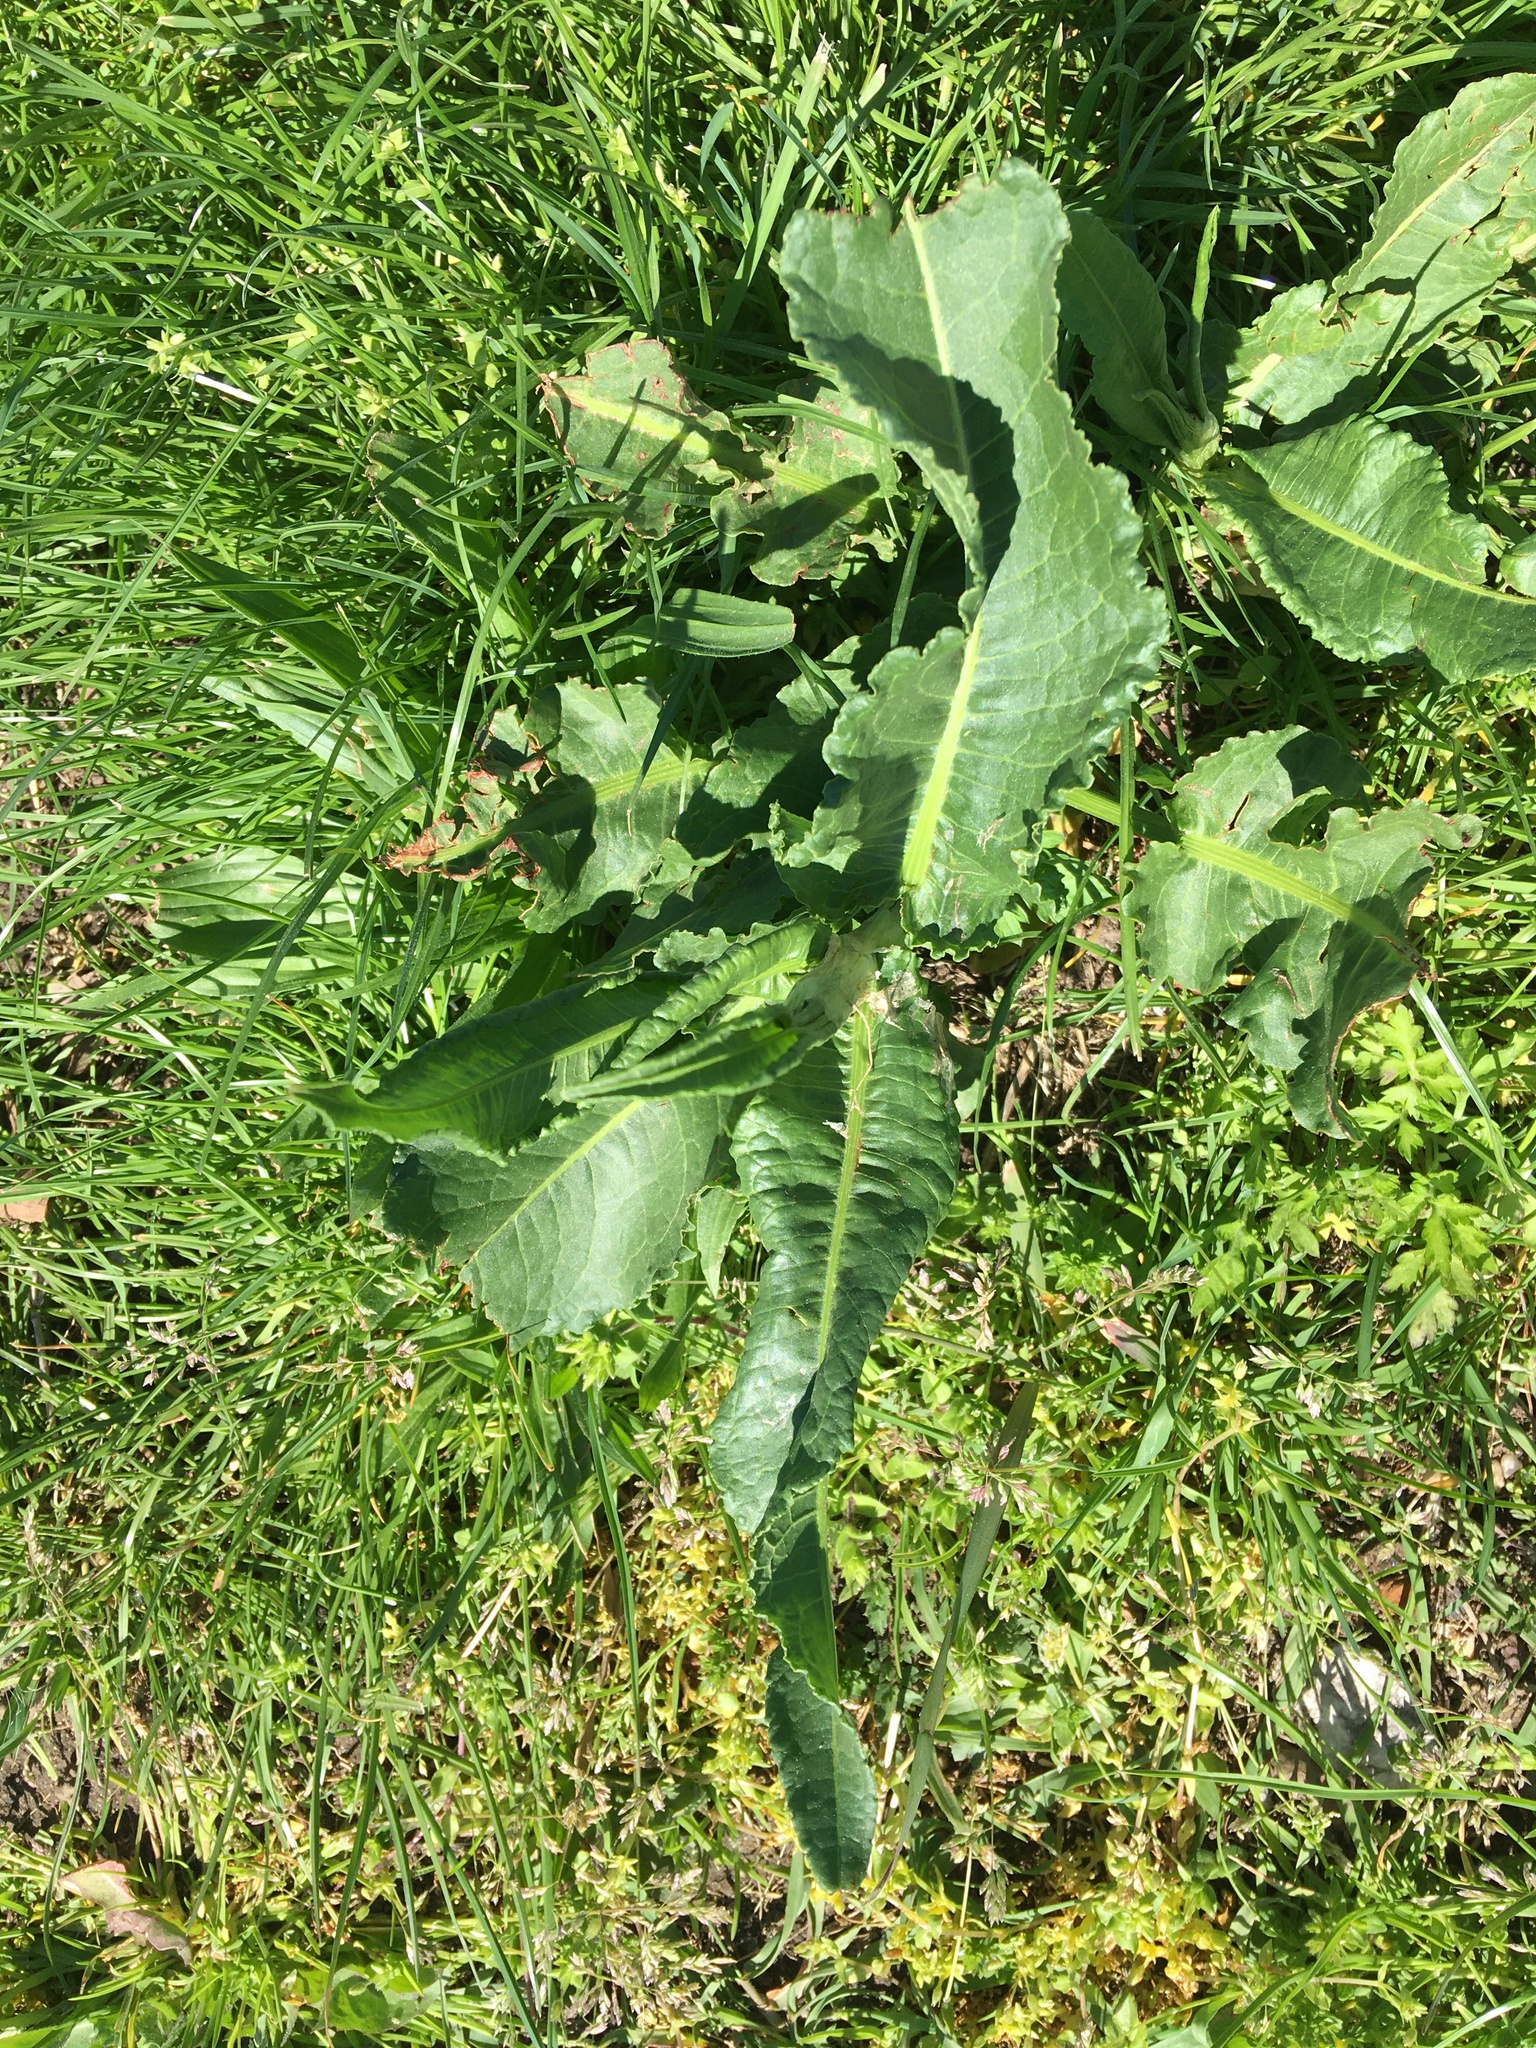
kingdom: Plantae
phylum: Tracheophyta
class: Magnoliopsida
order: Caryophyllales
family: Polygonaceae
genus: Rumex
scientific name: Rumex obtusifolius
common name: Bitter dock
